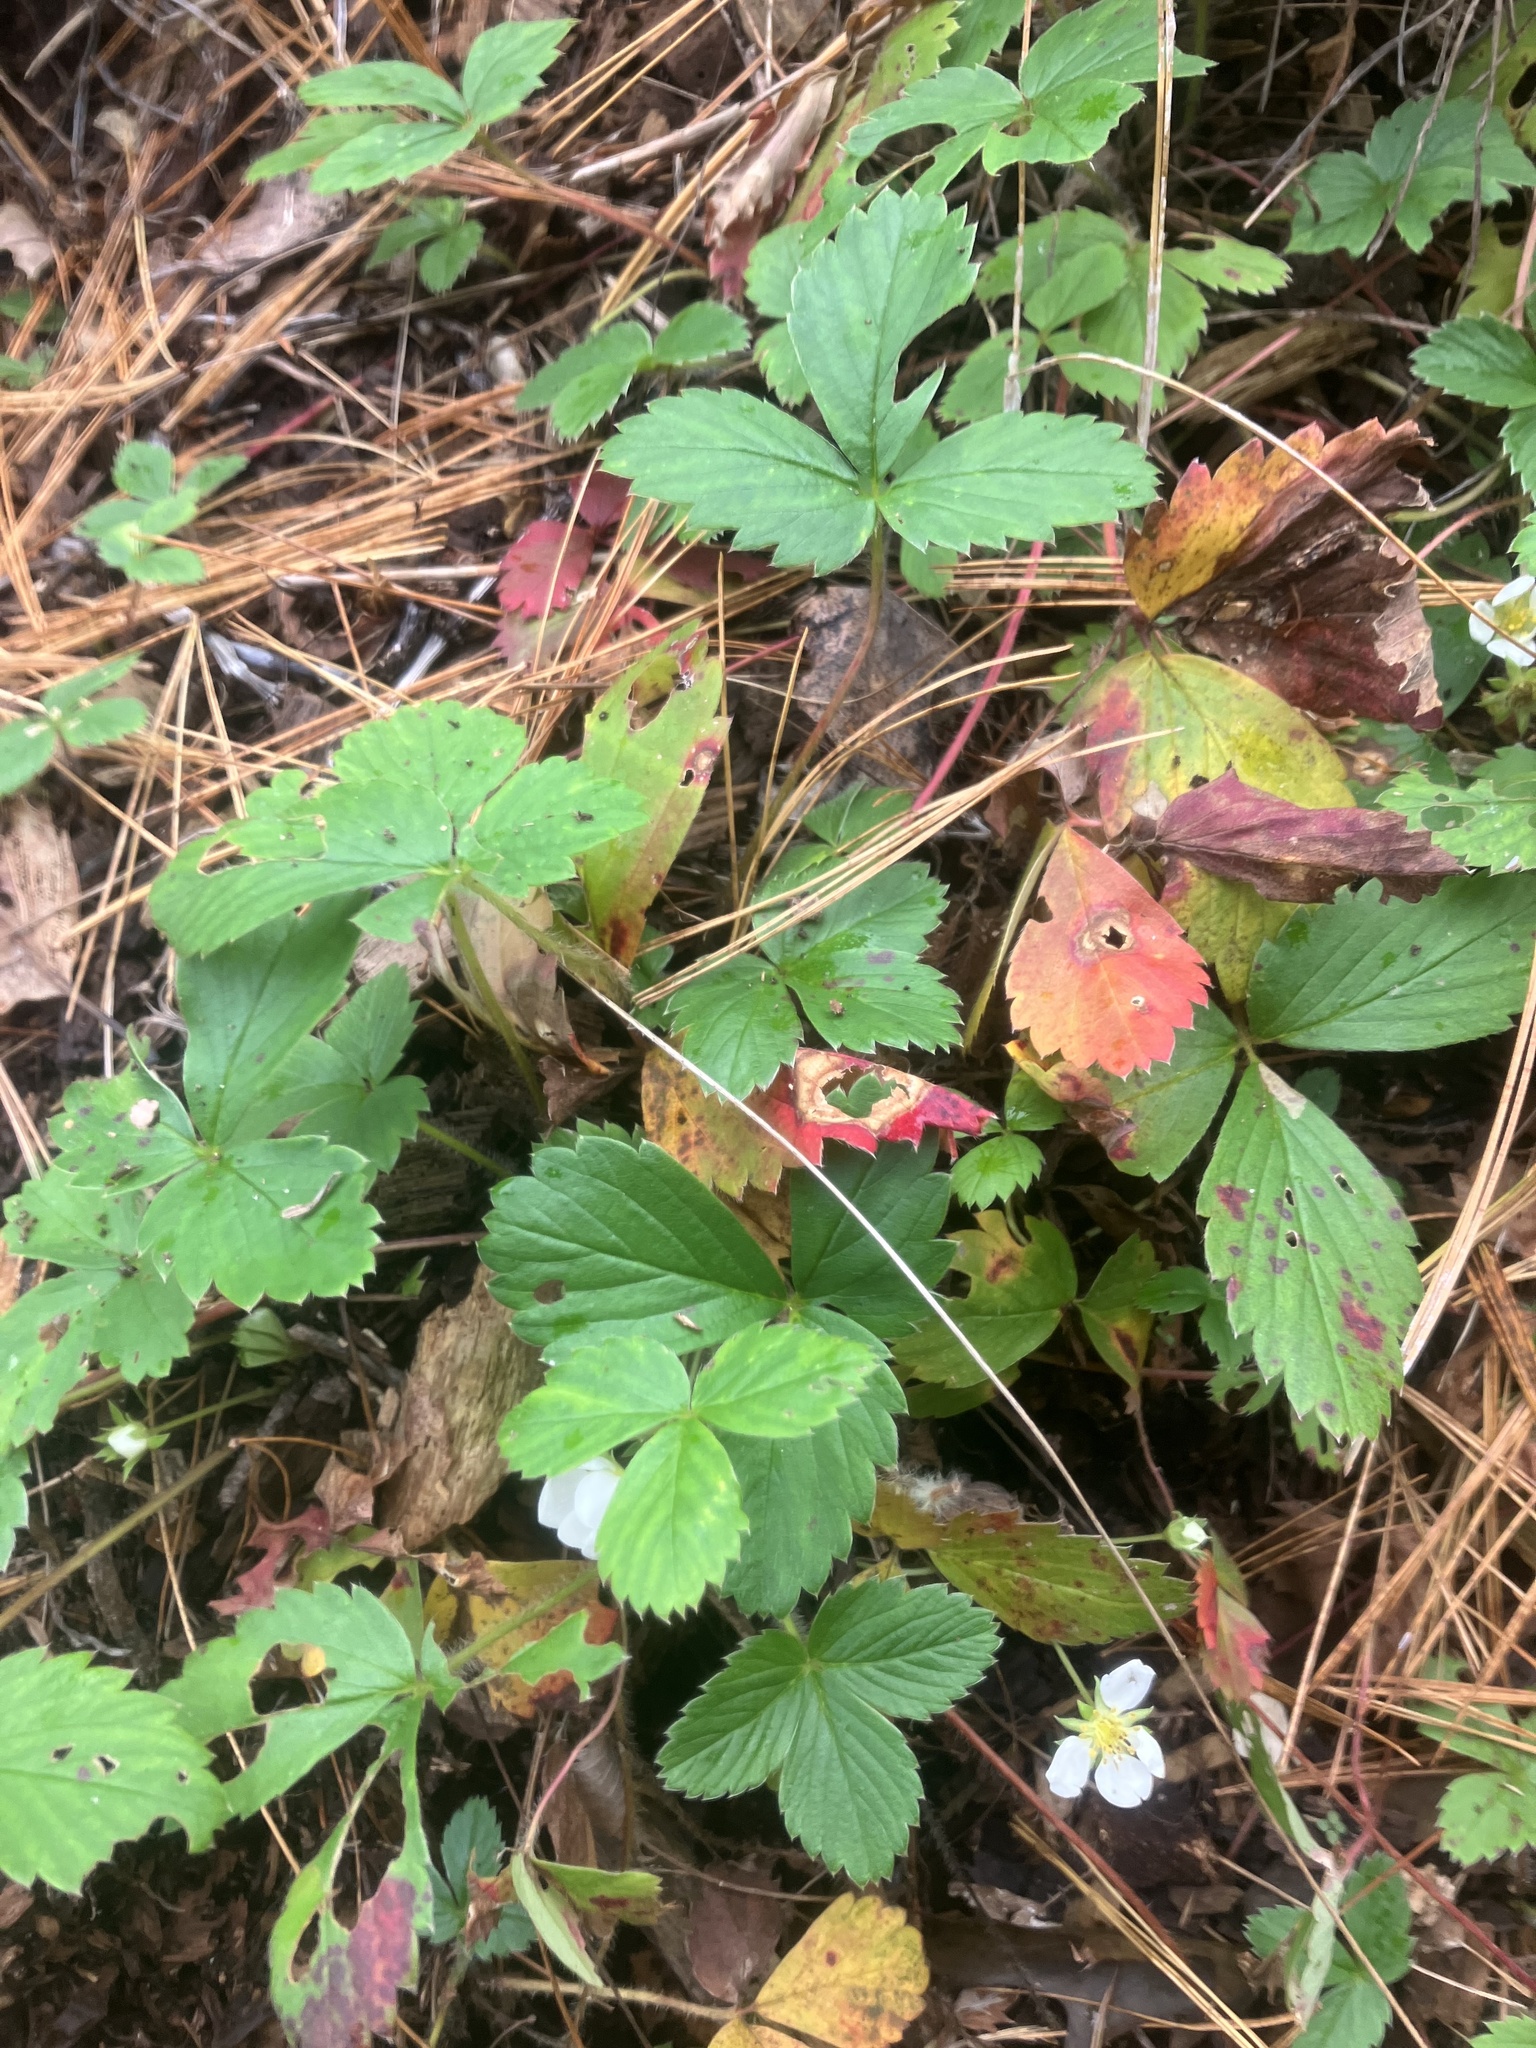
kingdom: Plantae
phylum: Tracheophyta
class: Magnoliopsida
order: Rosales
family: Rosaceae
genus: Fragaria
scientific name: Fragaria virginiana
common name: Thickleaved wild strawberry
